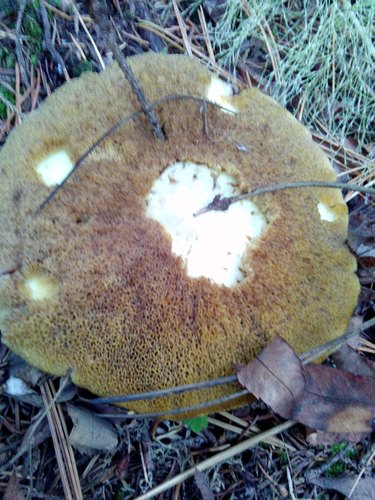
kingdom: Fungi
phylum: Basidiomycota
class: Agaricomycetes
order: Boletales
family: Suillaceae
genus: Suillus
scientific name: Suillus placidus
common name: Slippery white bolete
